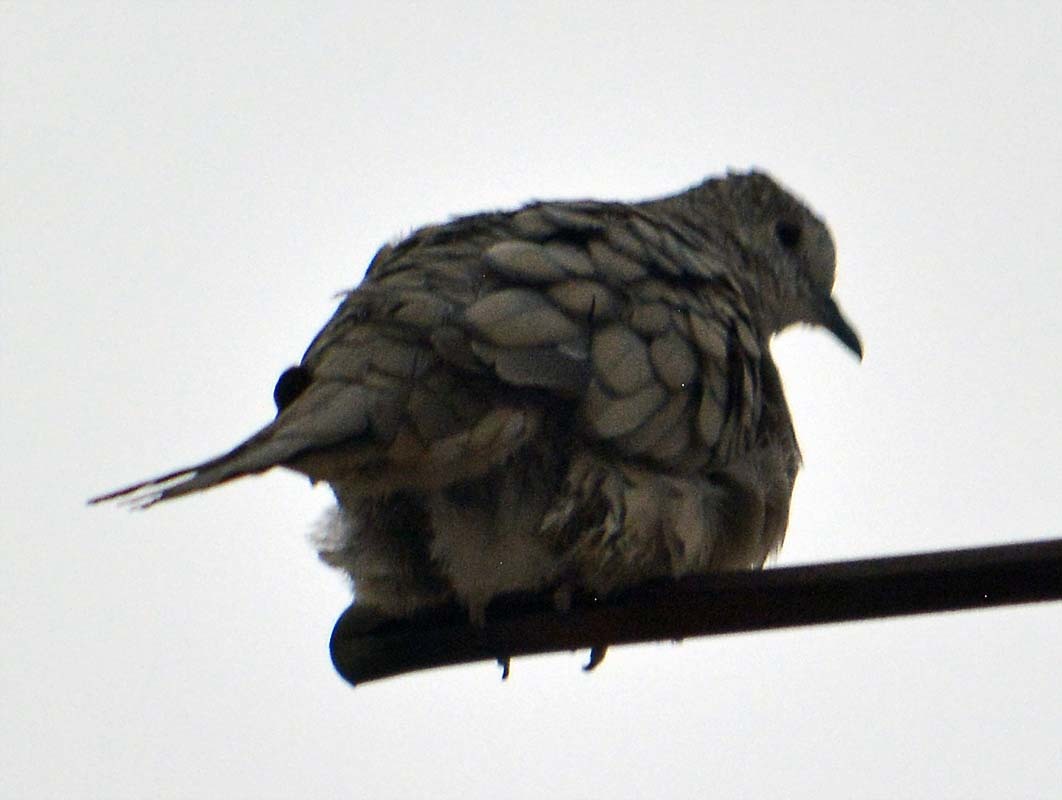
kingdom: Animalia
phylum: Chordata
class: Aves
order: Columbiformes
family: Columbidae
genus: Columbina
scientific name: Columbina inca
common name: Inca dove
